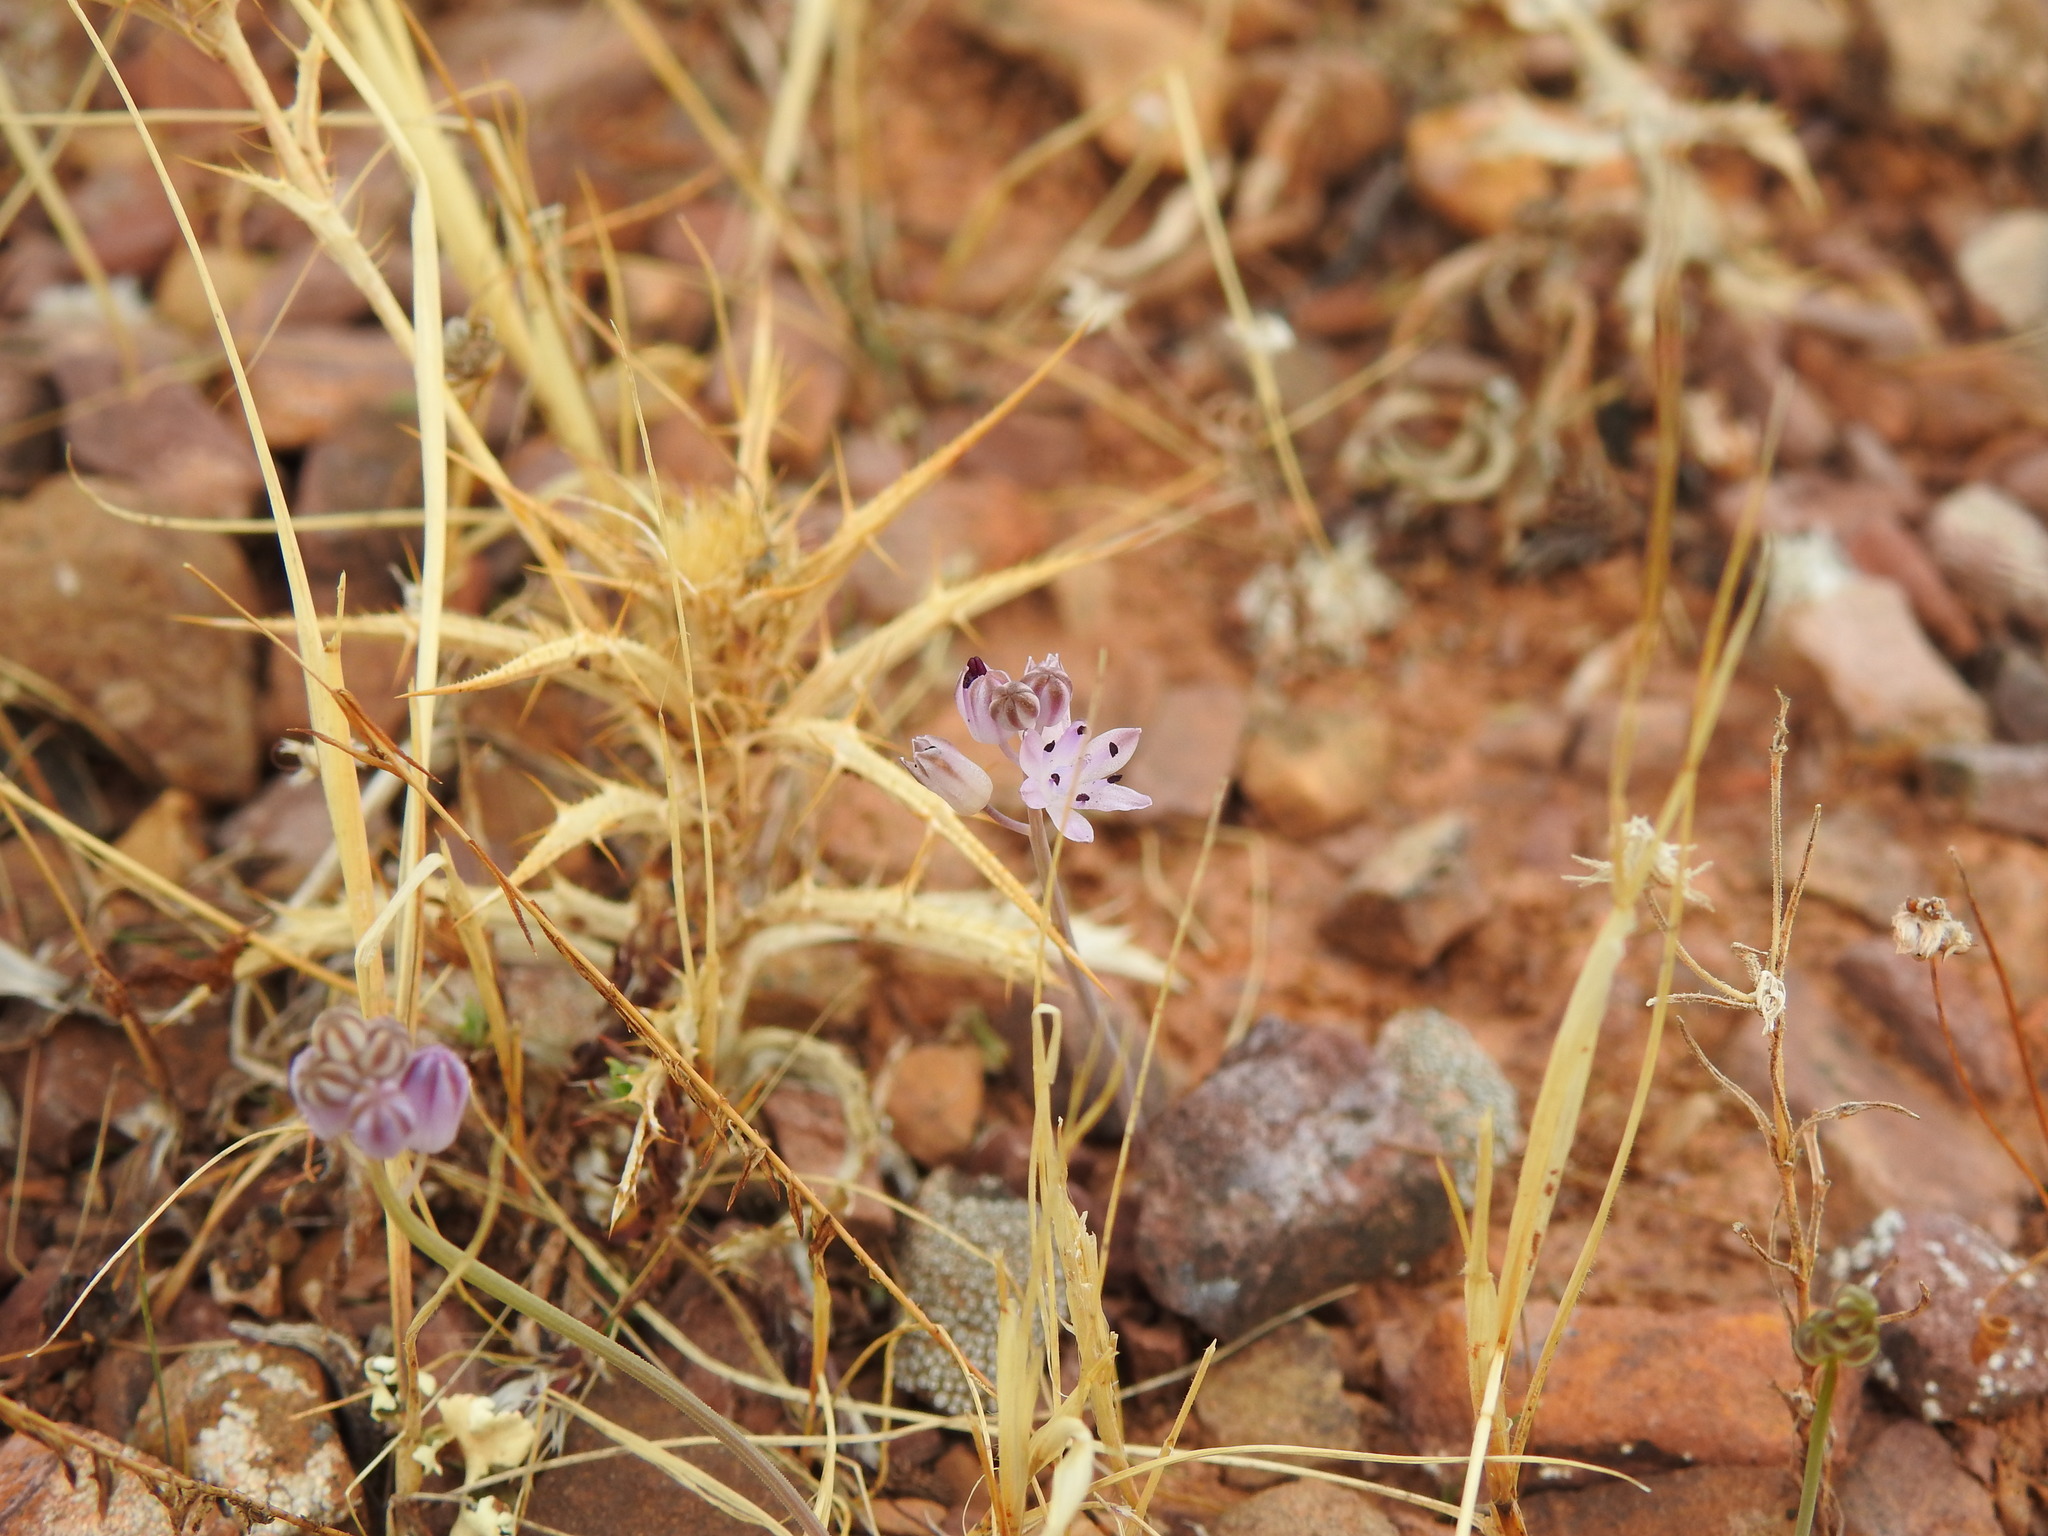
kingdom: Plantae
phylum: Tracheophyta
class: Liliopsida
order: Asparagales
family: Asparagaceae
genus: Prospero
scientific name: Prospero autumnale
